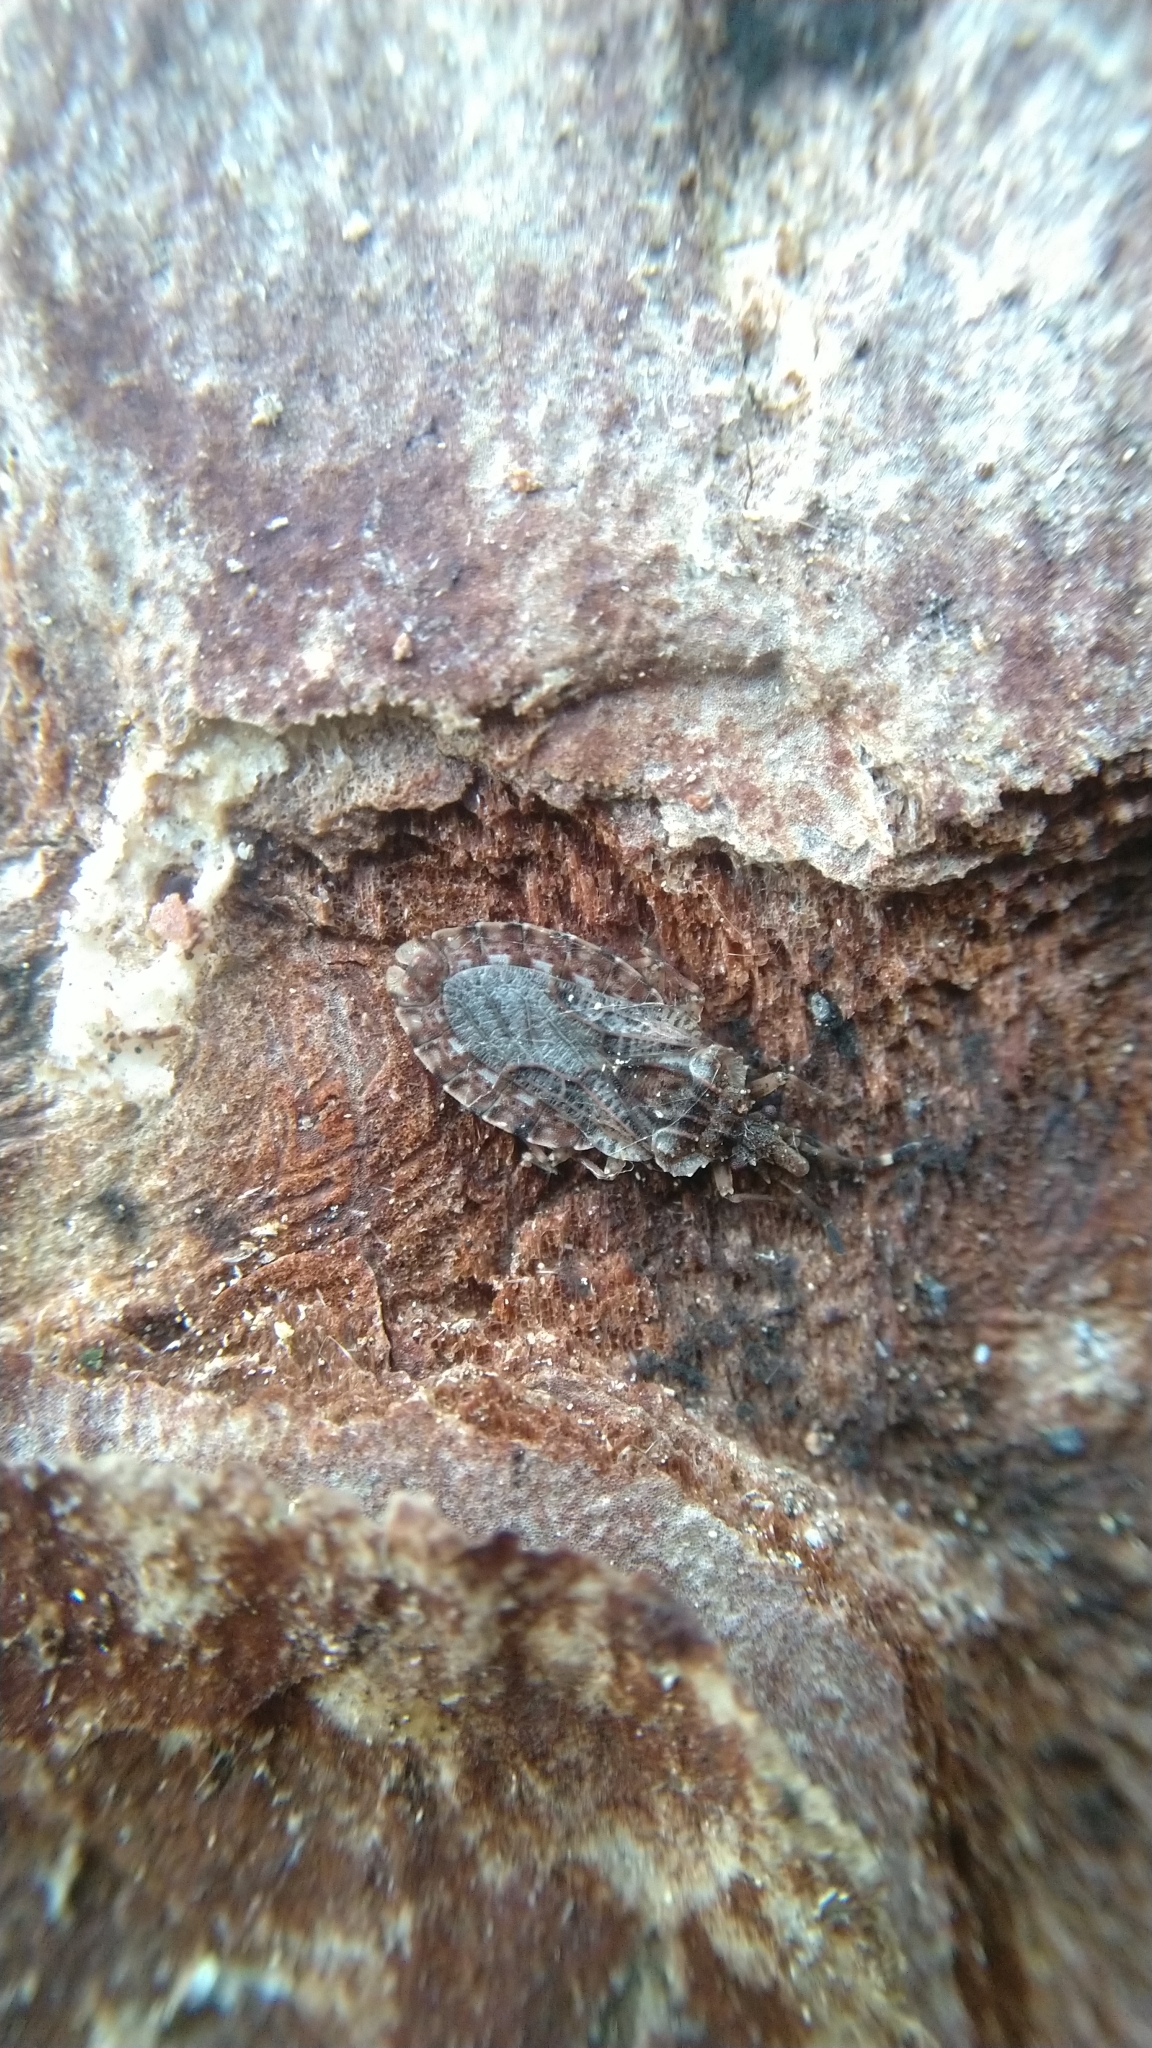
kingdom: Animalia
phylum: Arthropoda
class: Insecta
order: Hemiptera
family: Aradidae
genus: Aradus
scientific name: Aradus obtectus
